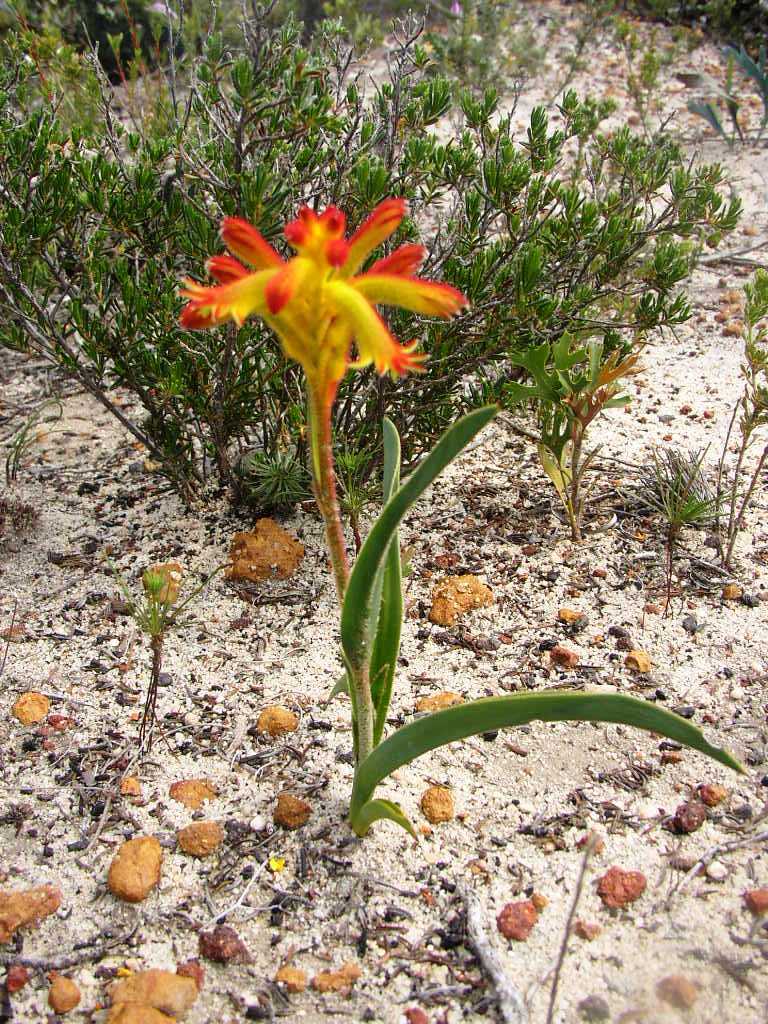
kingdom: Plantae
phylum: Tracheophyta
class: Liliopsida
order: Commelinales
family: Haemodoraceae
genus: Anigozanthos
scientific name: Anigozanthos humilis
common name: Cat's-paw
